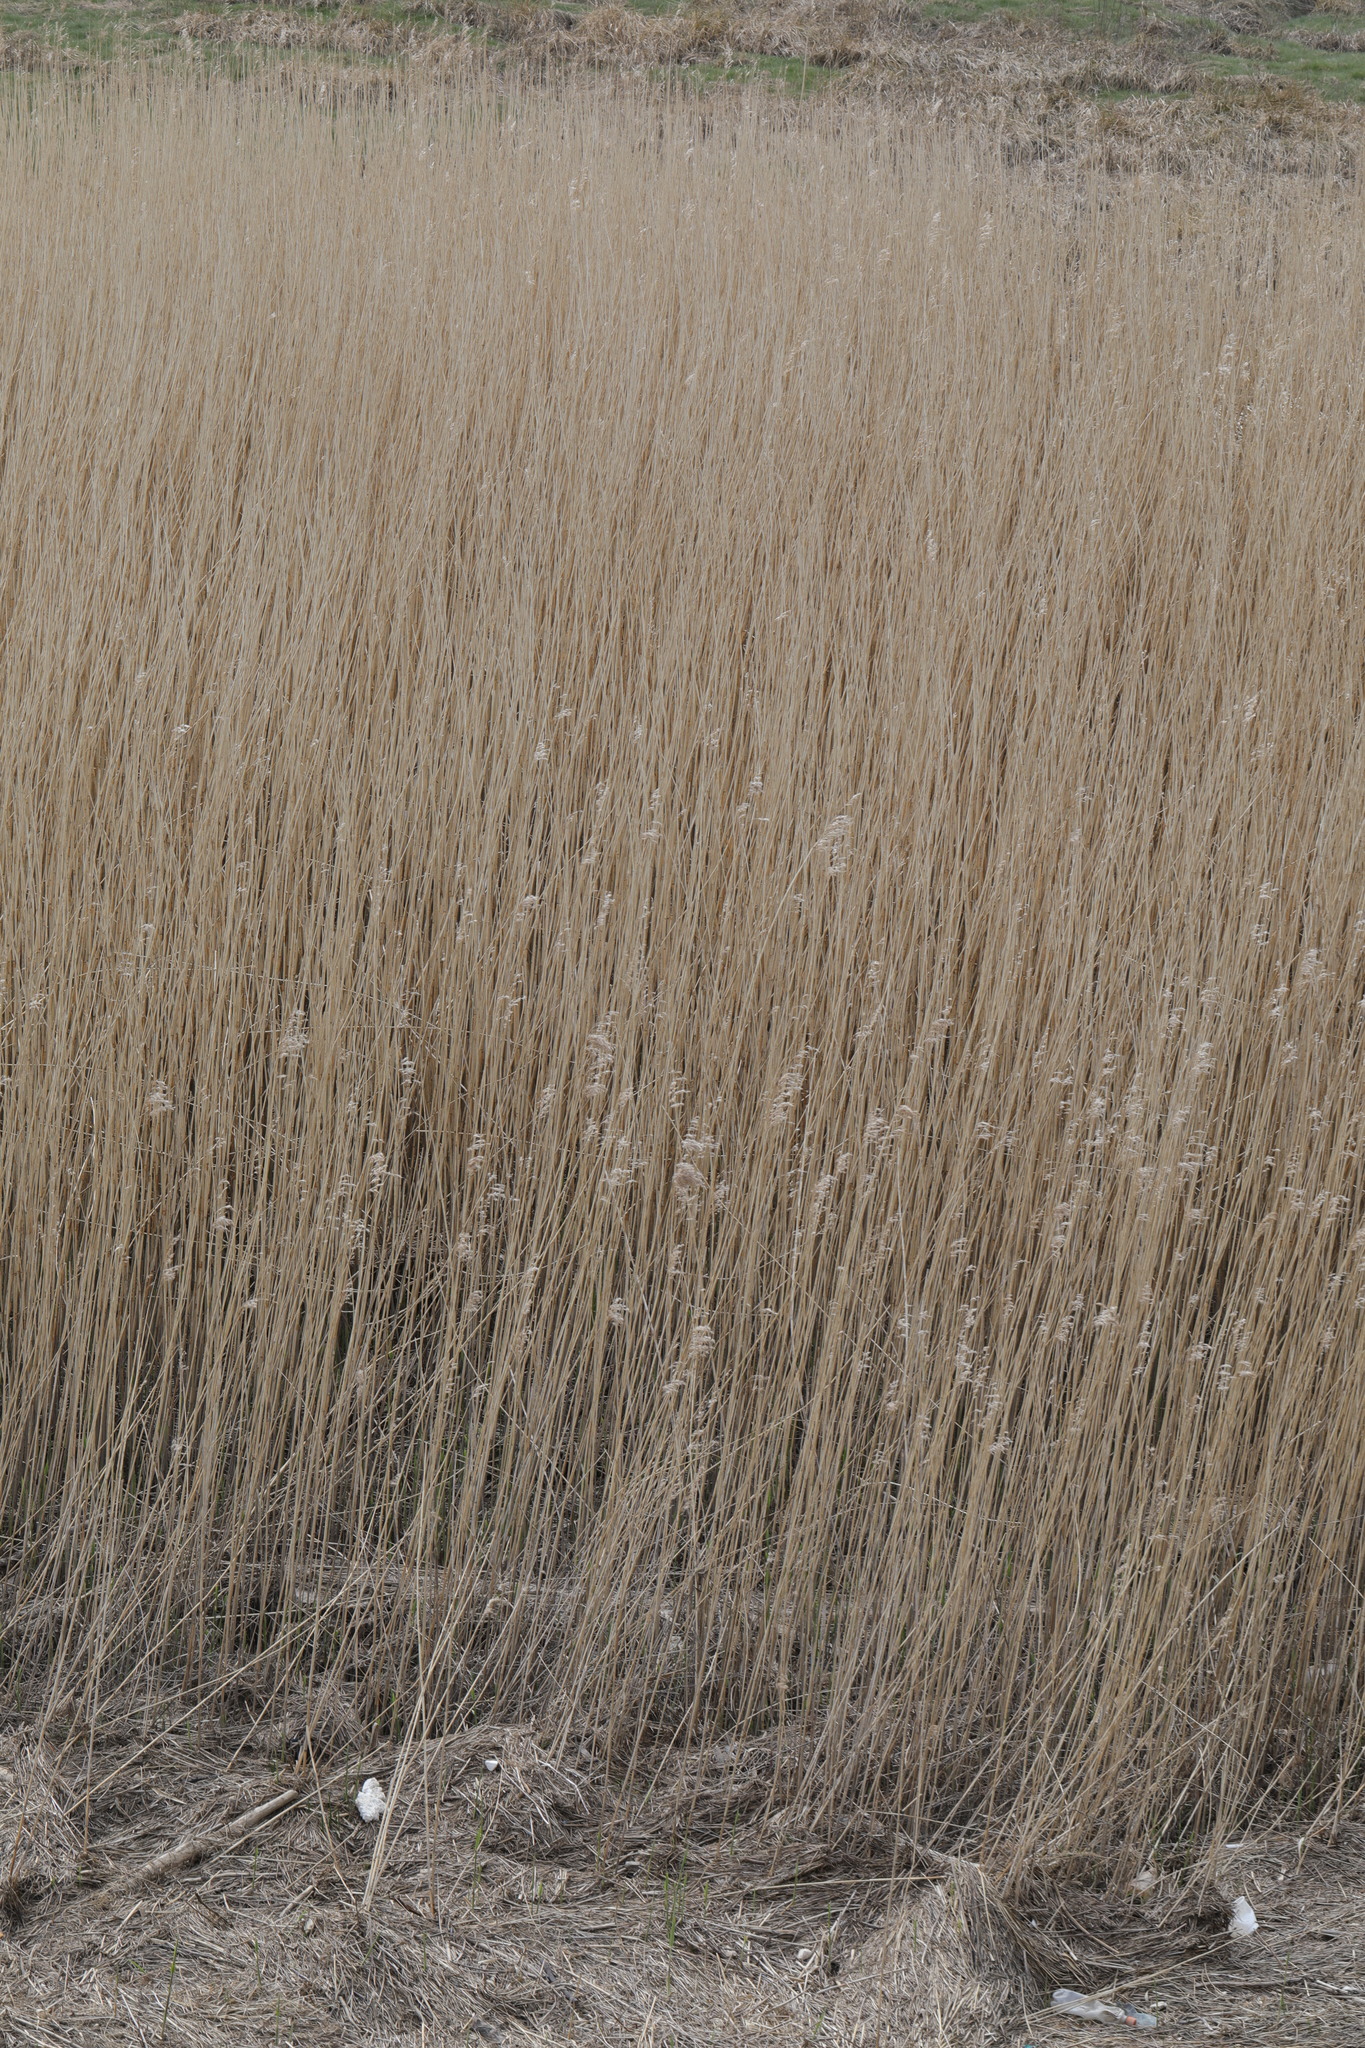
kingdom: Plantae
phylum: Tracheophyta
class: Liliopsida
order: Poales
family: Poaceae
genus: Phragmites
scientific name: Phragmites australis
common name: Common reed
